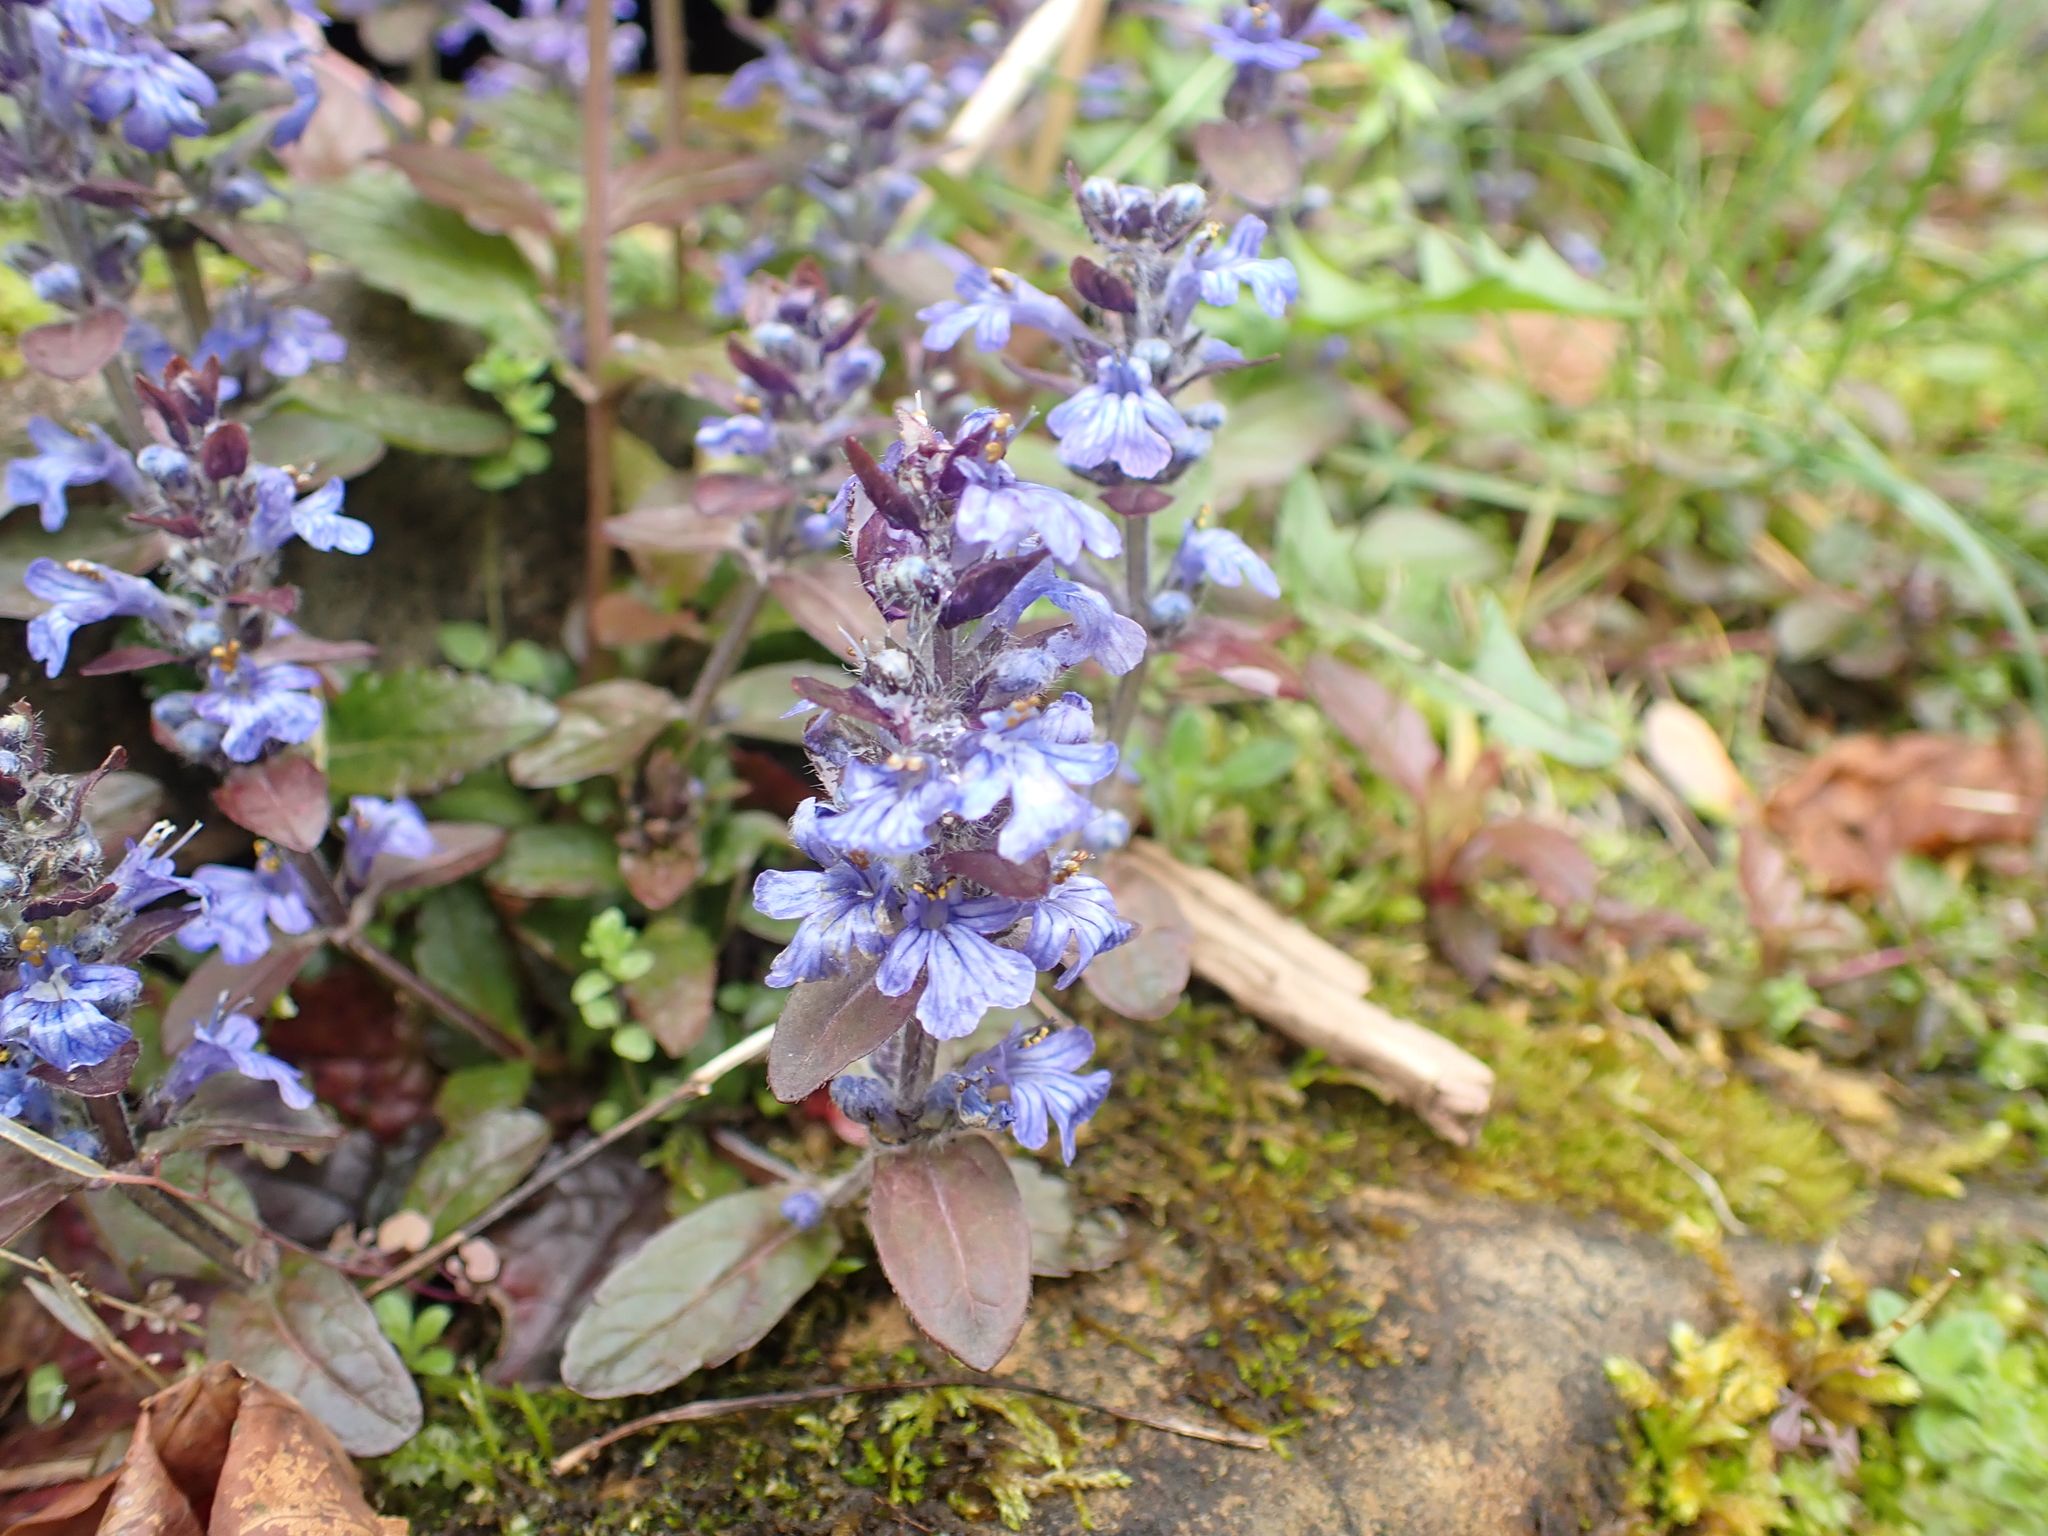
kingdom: Plantae
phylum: Tracheophyta
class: Magnoliopsida
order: Lamiales
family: Lamiaceae
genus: Ajuga
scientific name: Ajuga reptans
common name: Bugle
